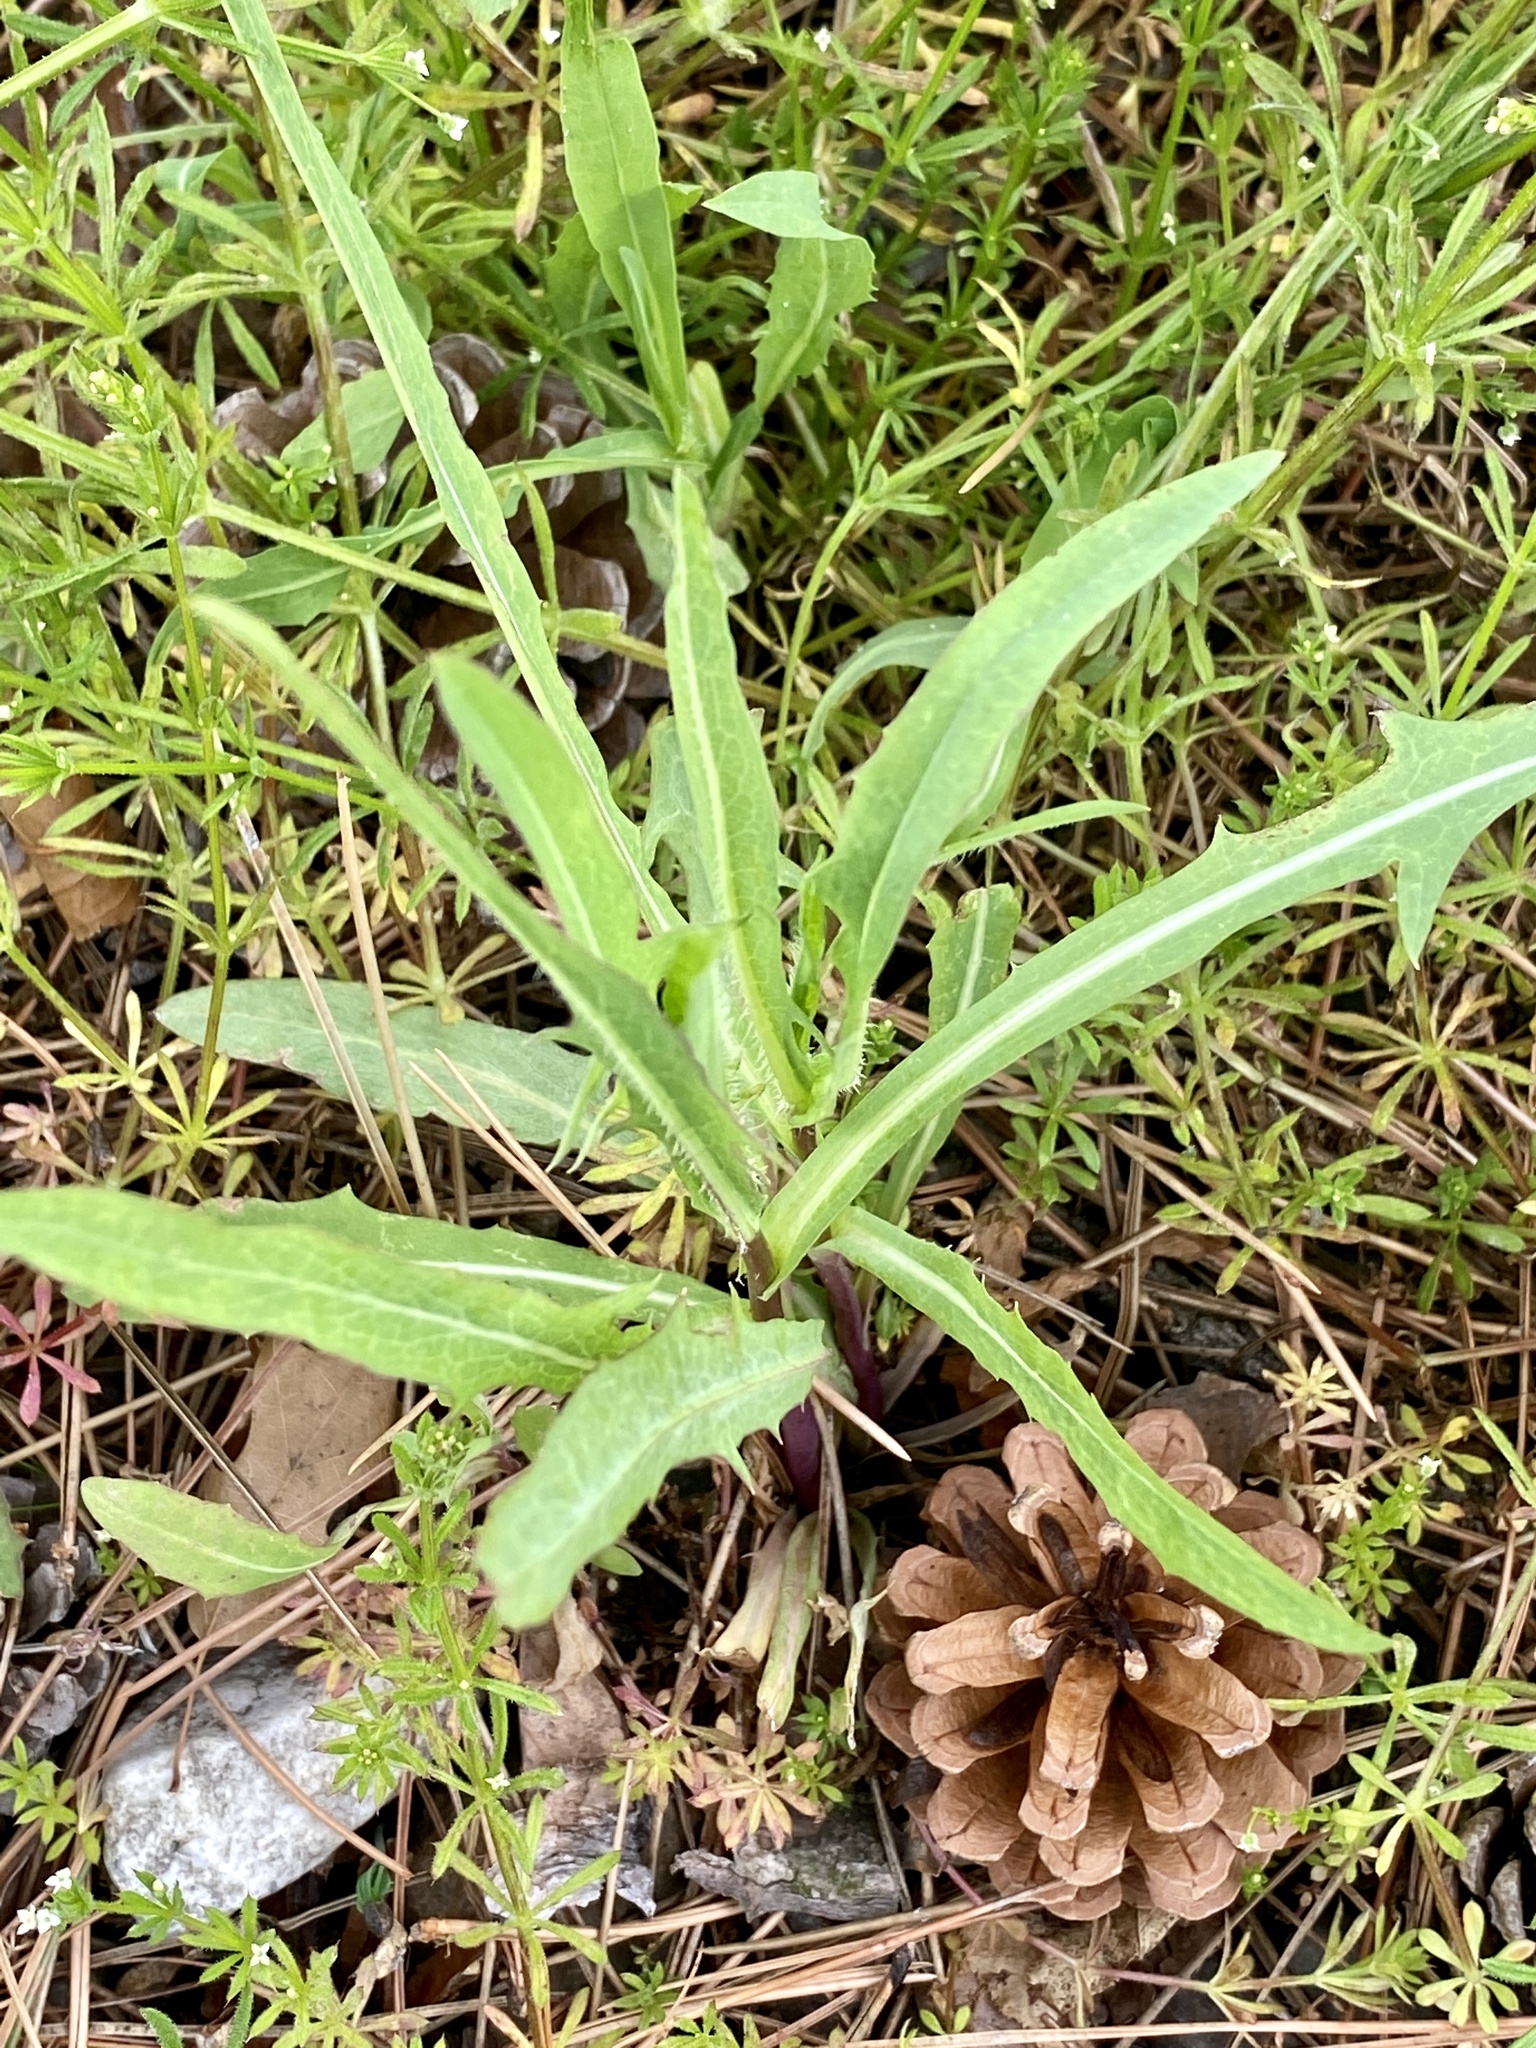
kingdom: Plantae
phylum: Tracheophyta
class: Magnoliopsida
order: Asterales
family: Asteraceae
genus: Lactuca
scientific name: Lactuca serriola
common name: Prickly lettuce
